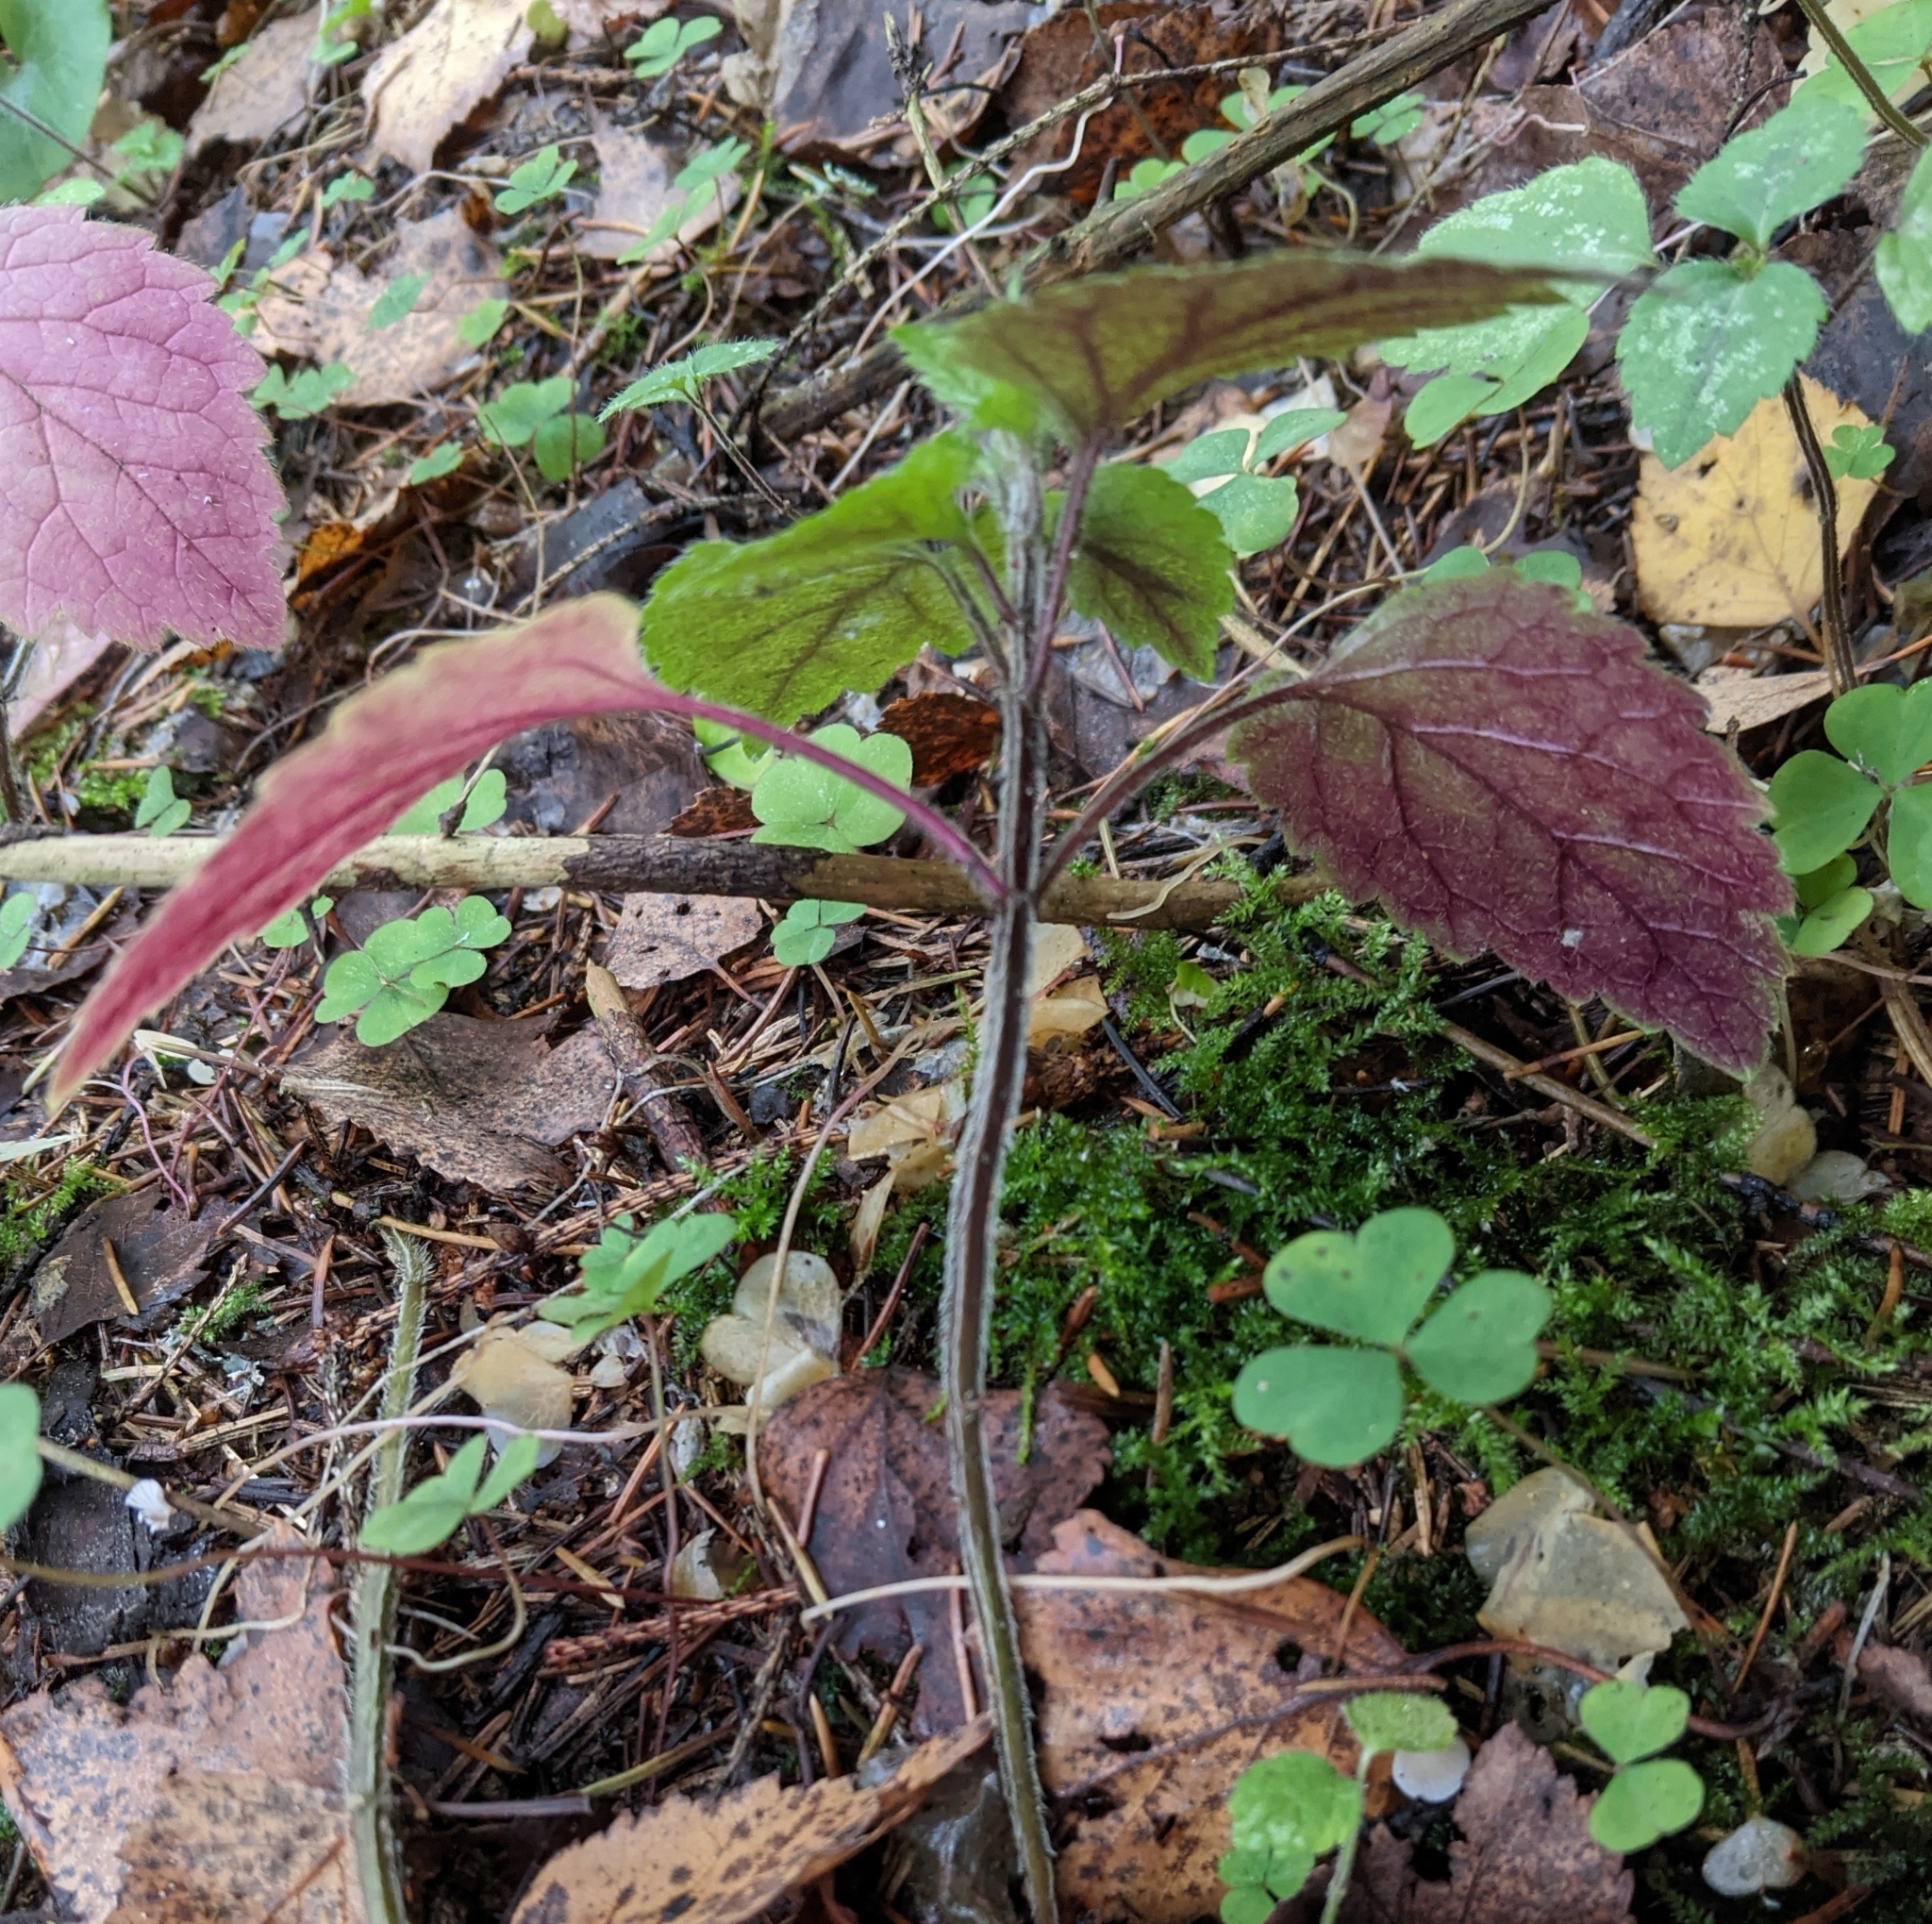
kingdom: Plantae
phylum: Tracheophyta
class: Magnoliopsida
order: Lamiales
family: Lamiaceae
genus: Lamium
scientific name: Lamium galeobdolon
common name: Yellow archangel
